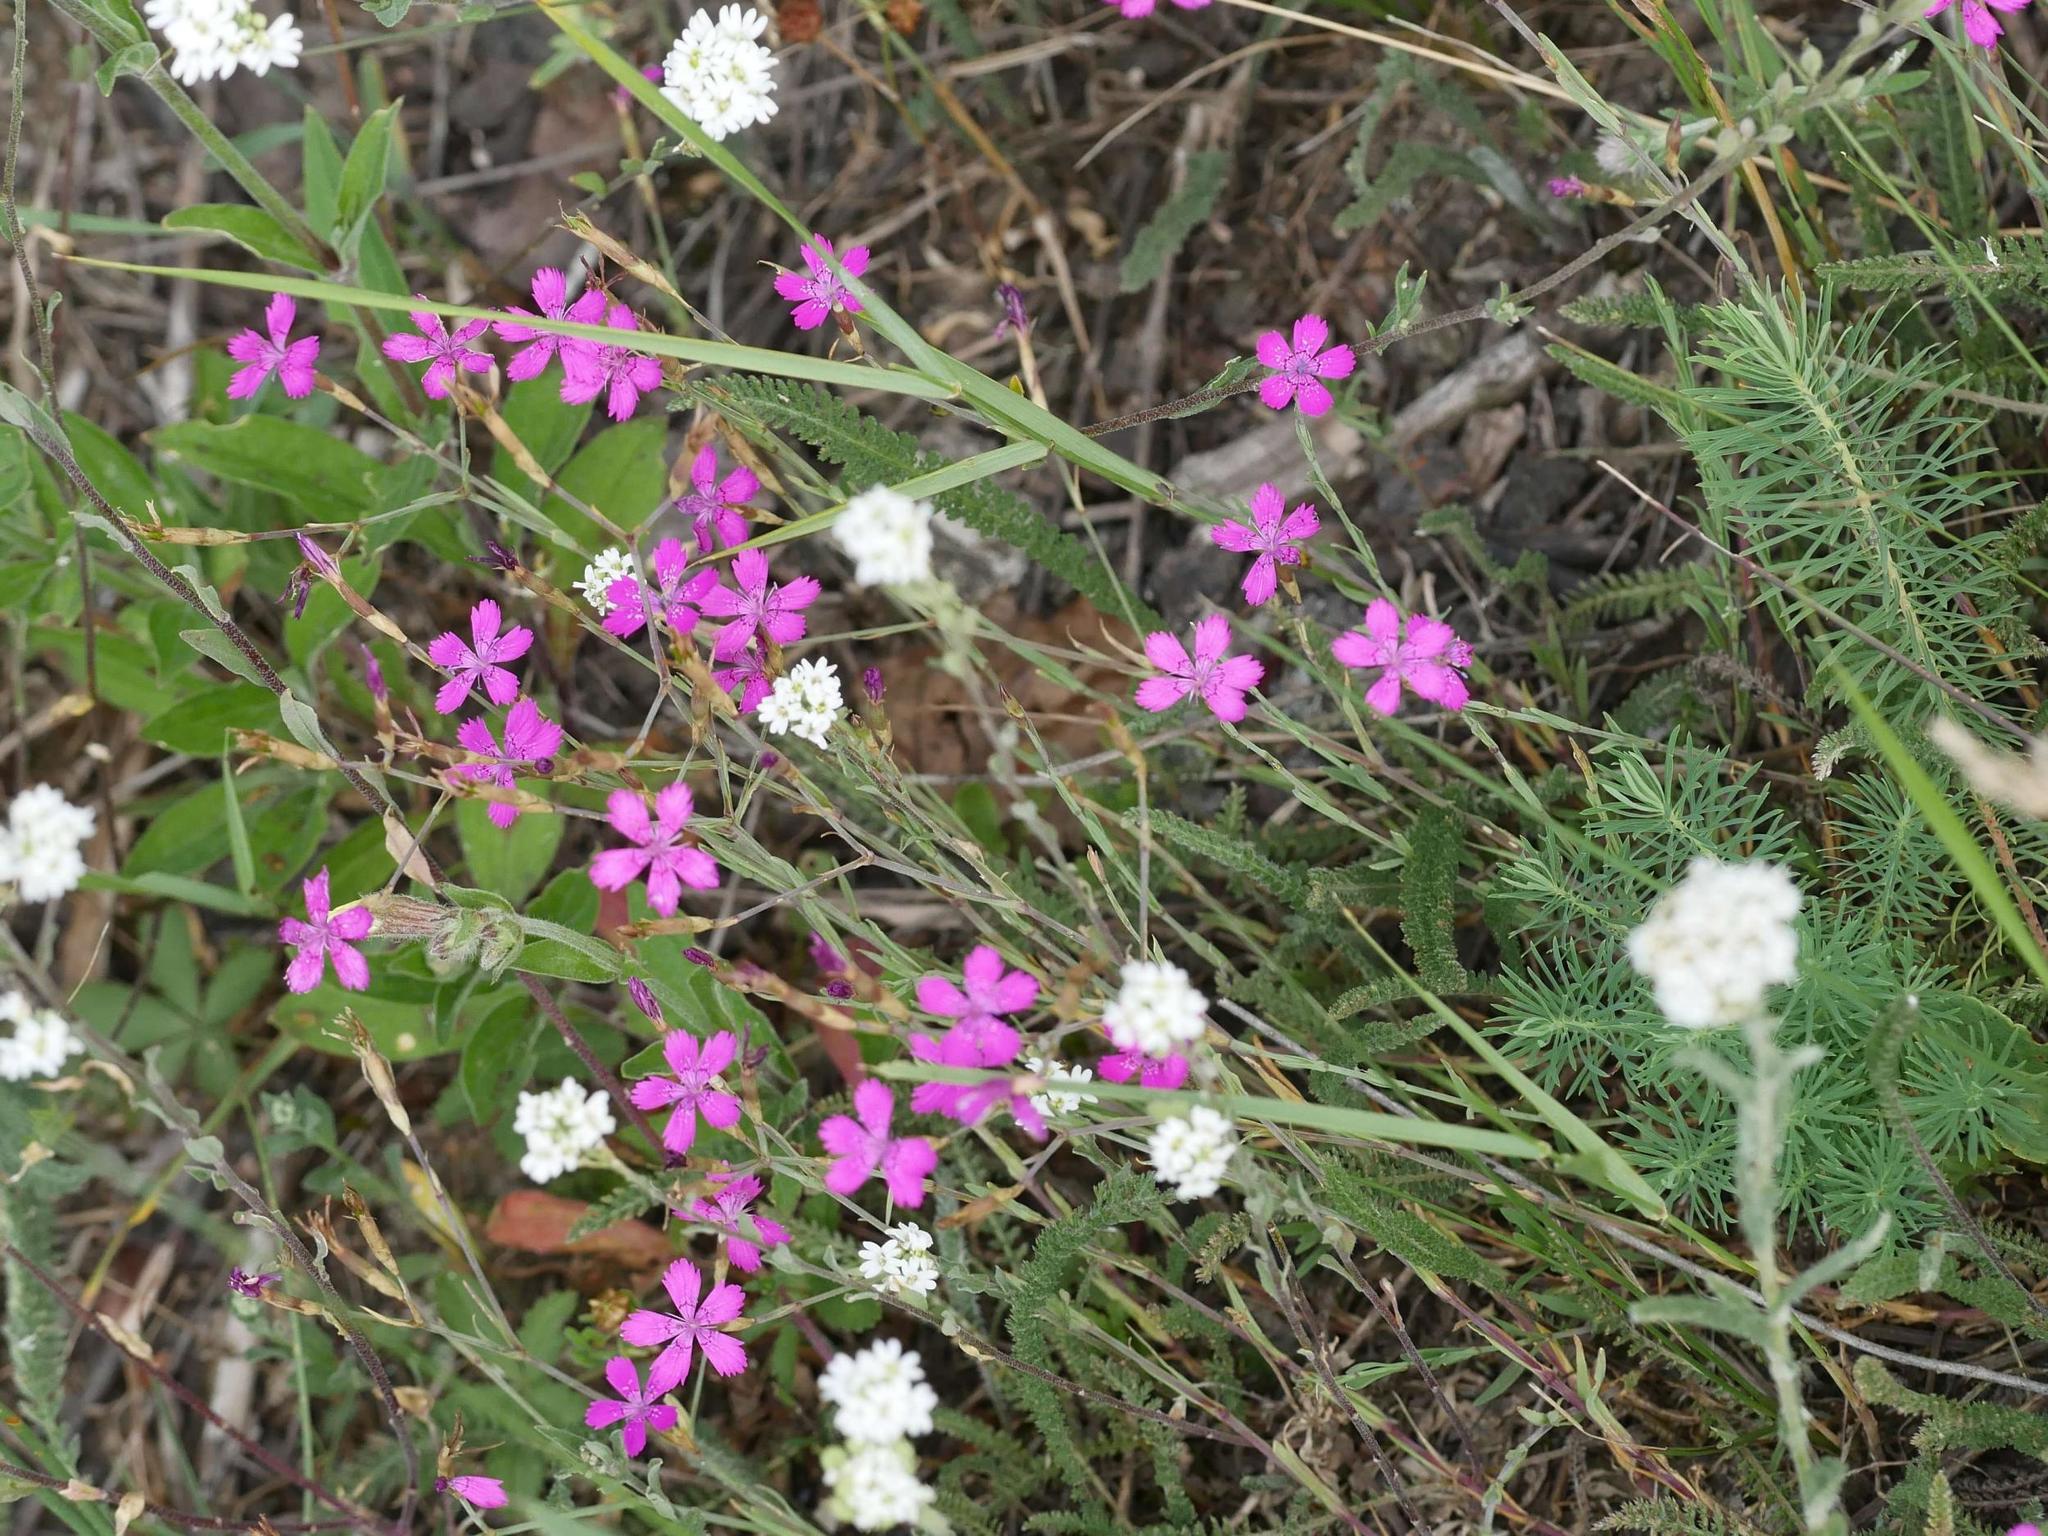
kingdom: Plantae
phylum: Tracheophyta
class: Magnoliopsida
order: Caryophyllales
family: Caryophyllaceae
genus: Dianthus
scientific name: Dianthus deltoides
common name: Maiden pink
